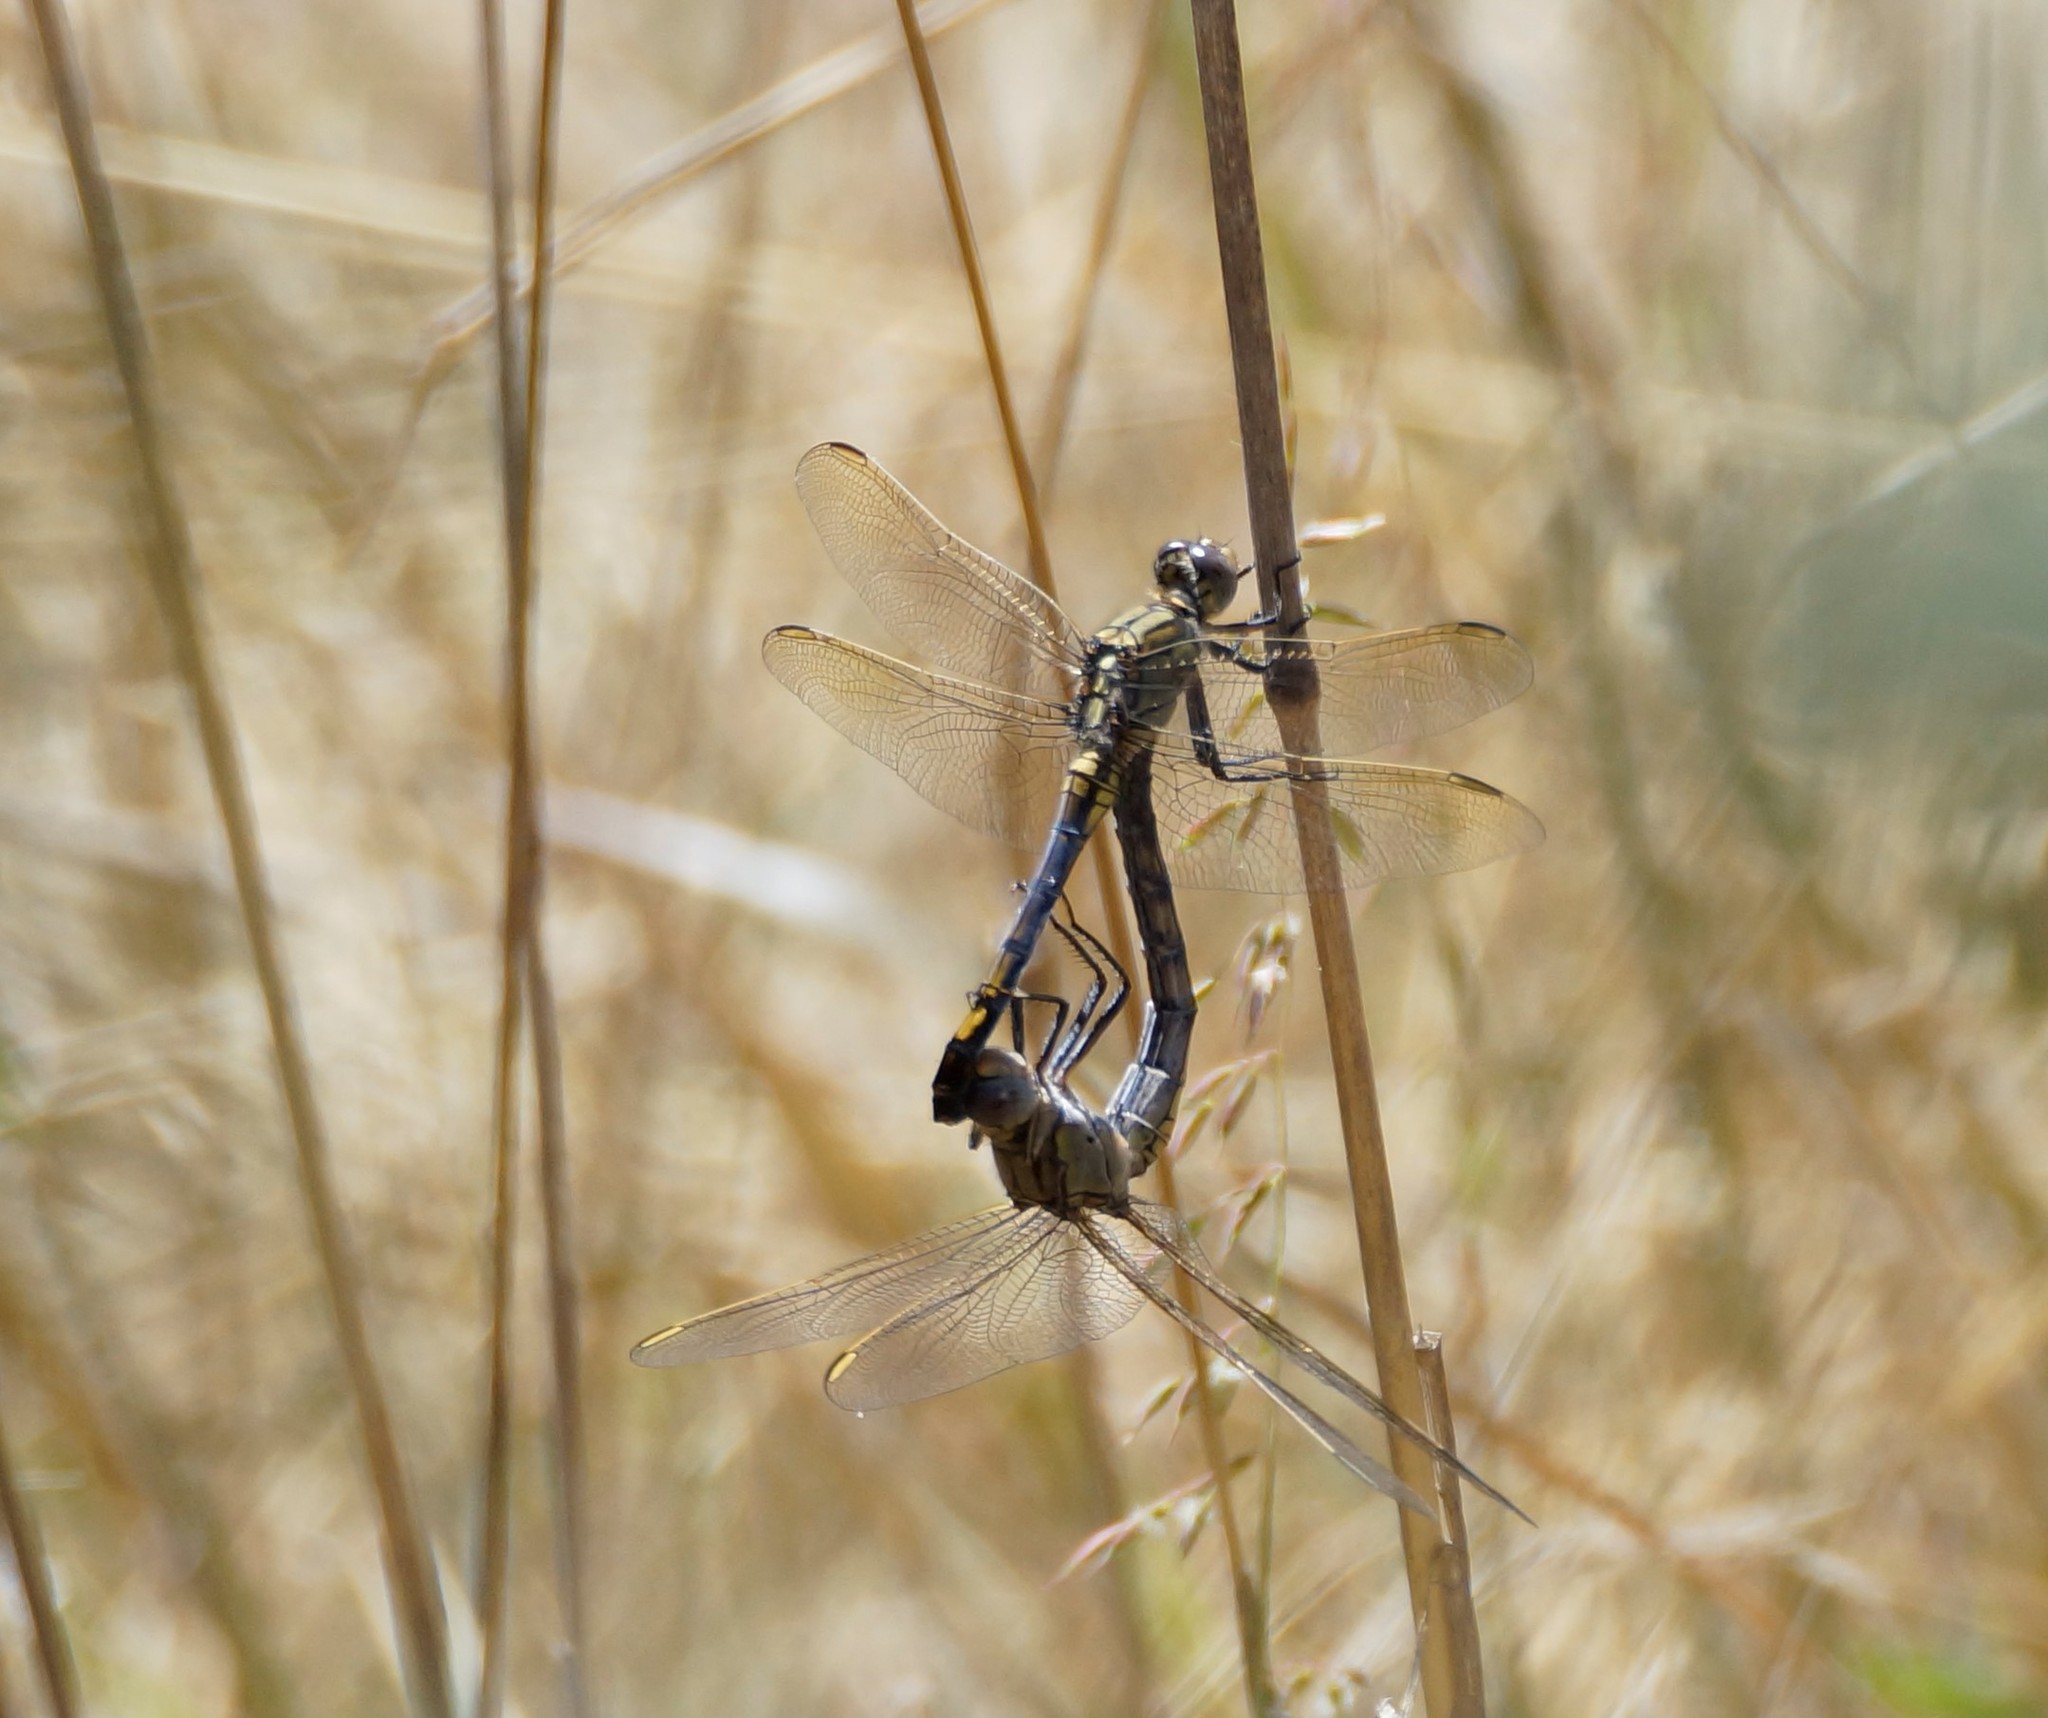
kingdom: Animalia
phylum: Arthropoda
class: Insecta
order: Odonata
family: Libellulidae
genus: Orthetrum
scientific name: Orthetrum caledonicum
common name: Blue skimmer
